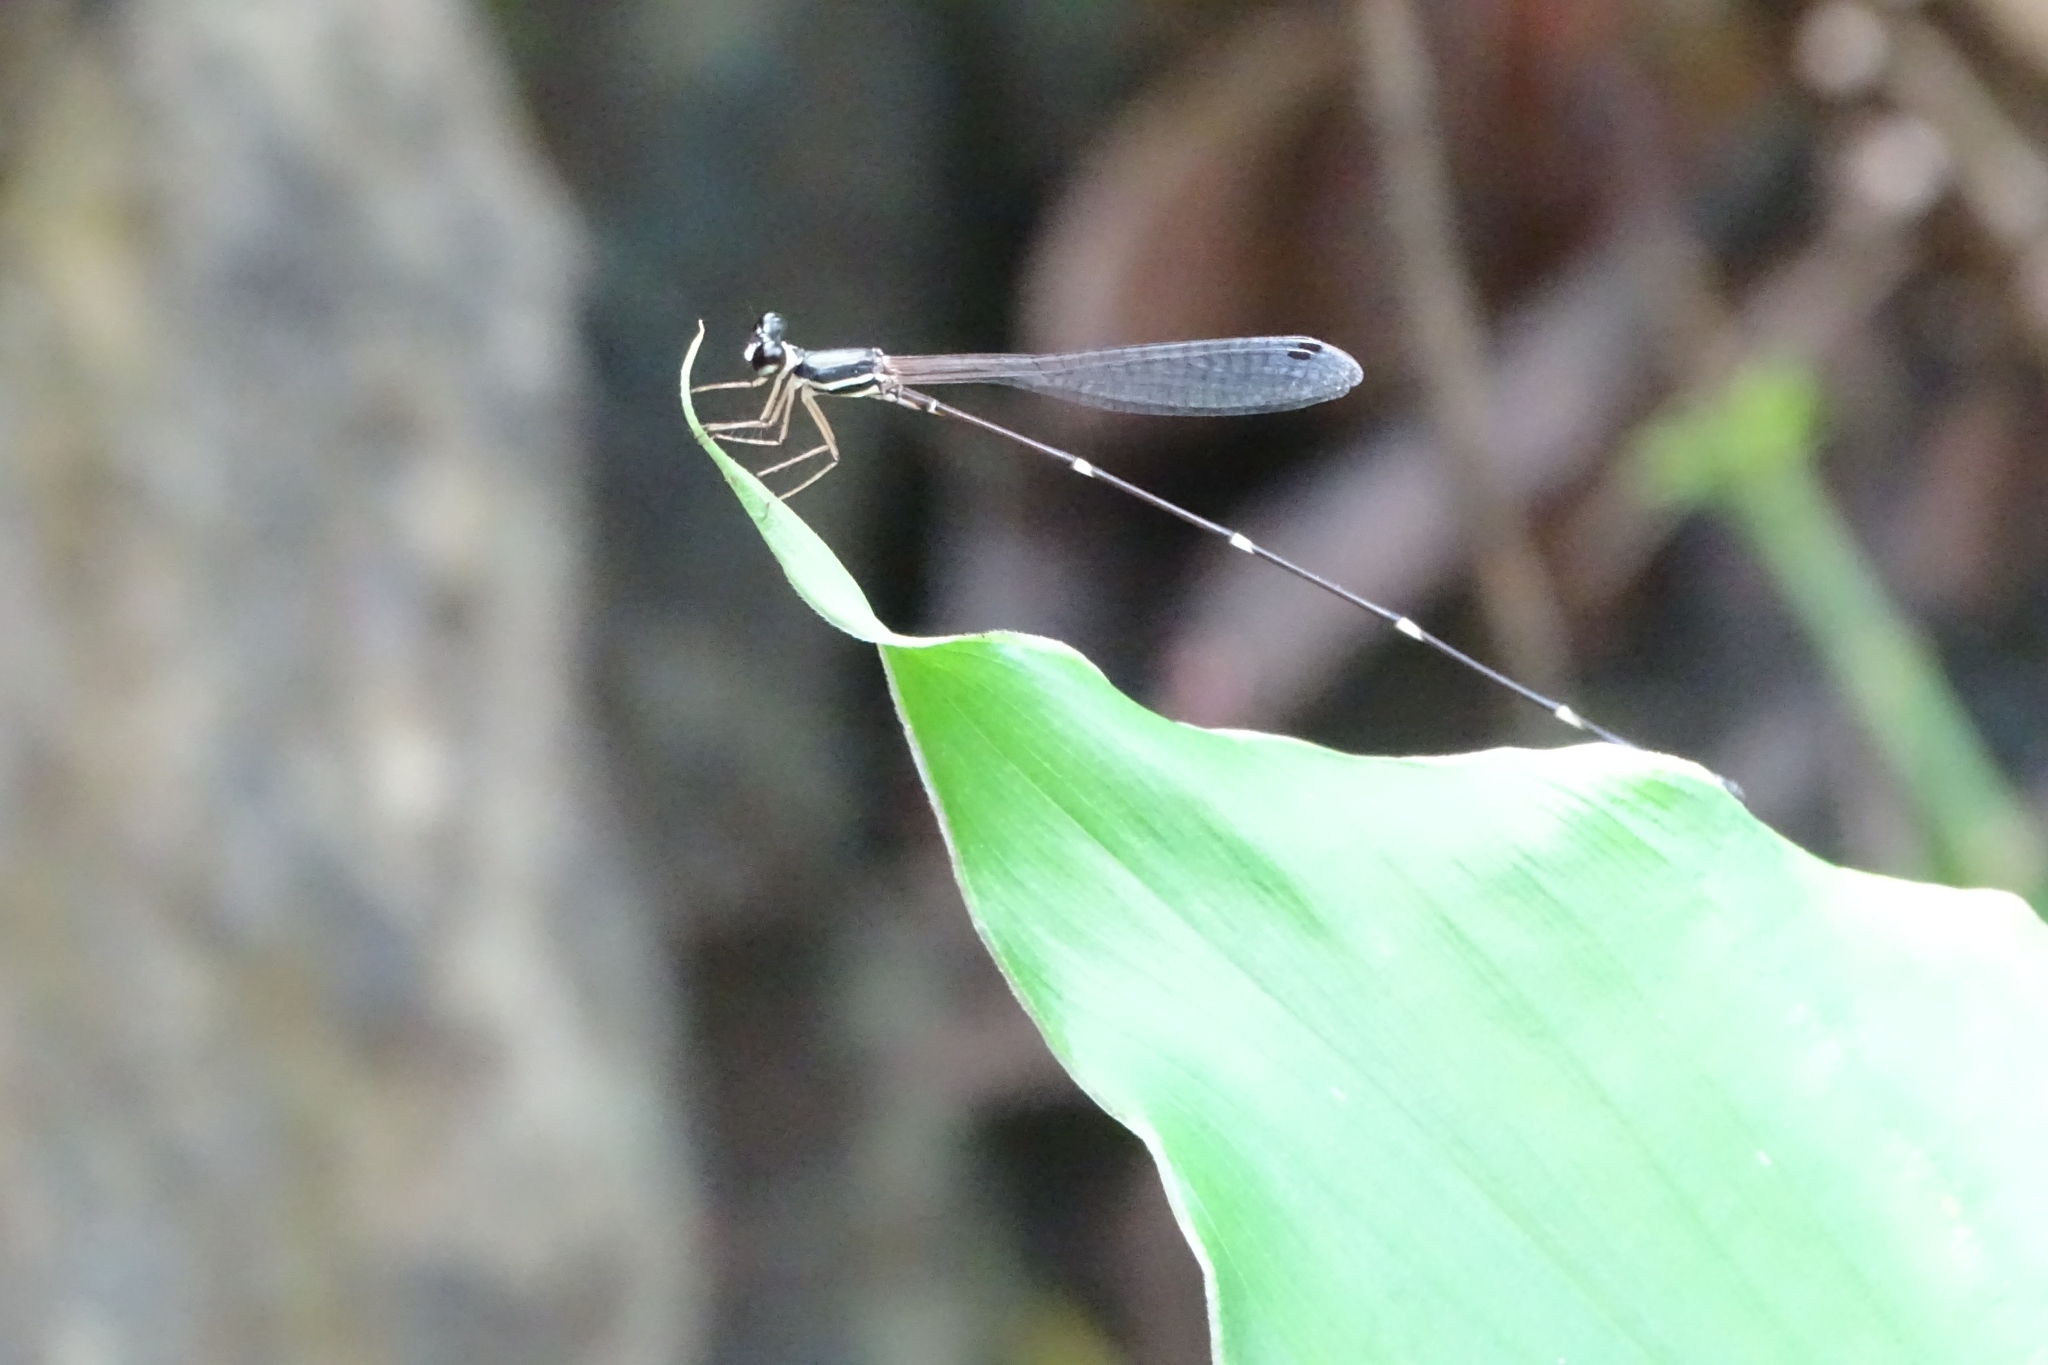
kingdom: Animalia
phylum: Arthropoda
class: Insecta
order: Odonata
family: Platystictidae
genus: Protosticta
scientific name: Protosticta gravelyi
